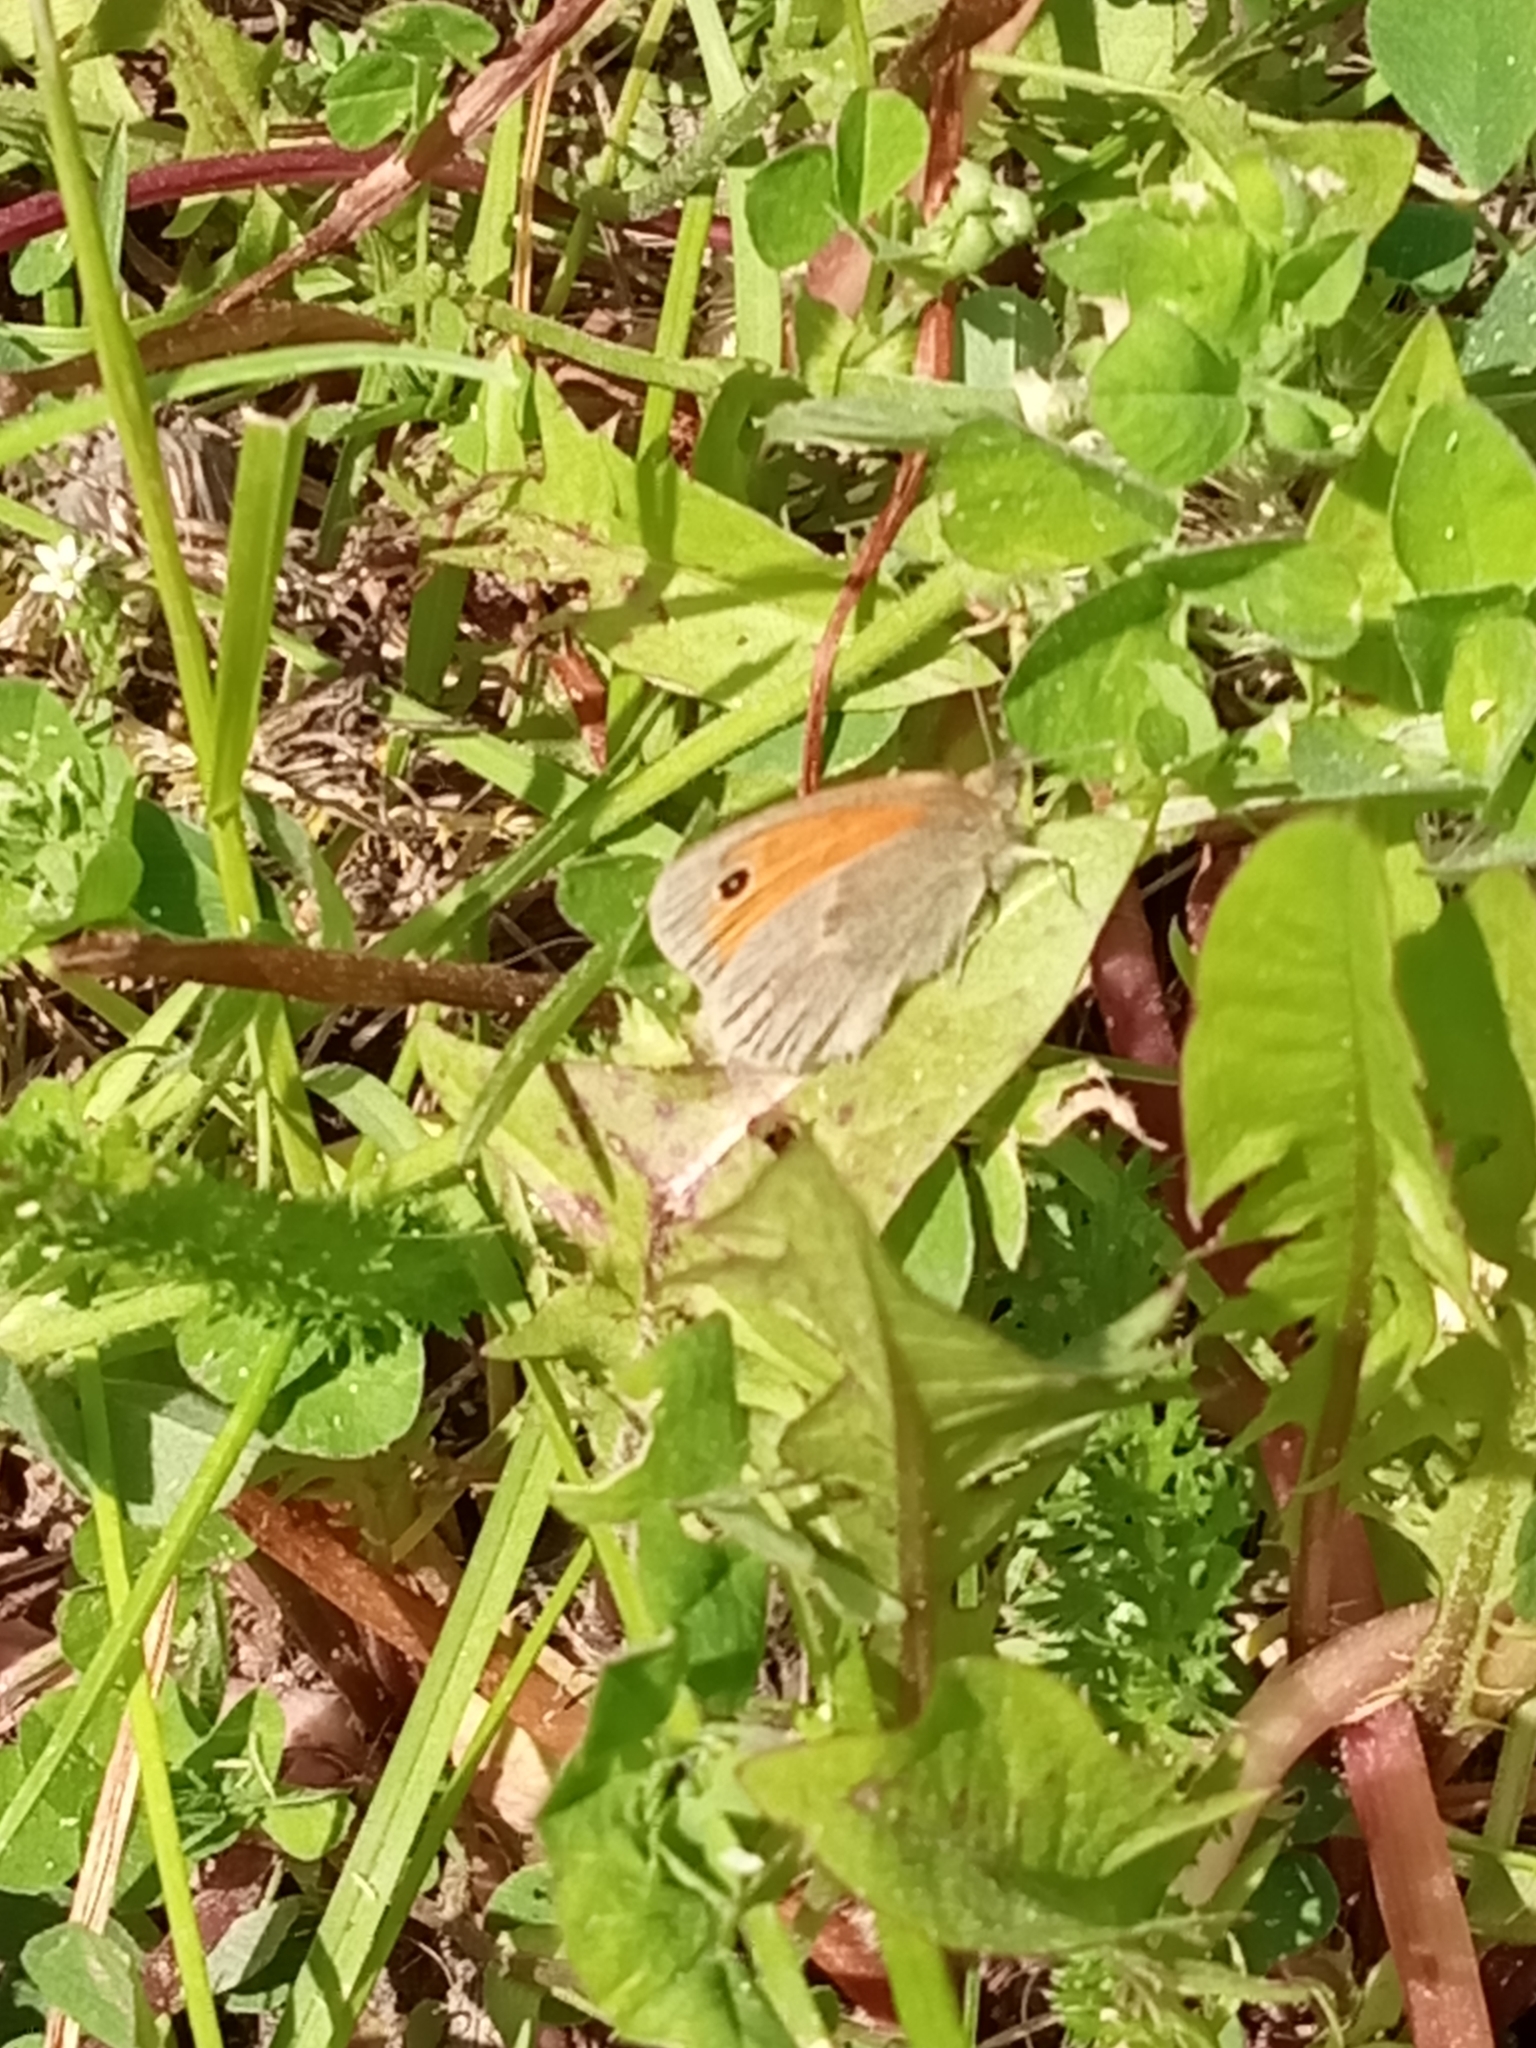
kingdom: Animalia
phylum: Arthropoda
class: Insecta
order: Lepidoptera
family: Nymphalidae
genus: Coenonympha
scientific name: Coenonympha pamphilus
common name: Small heath
